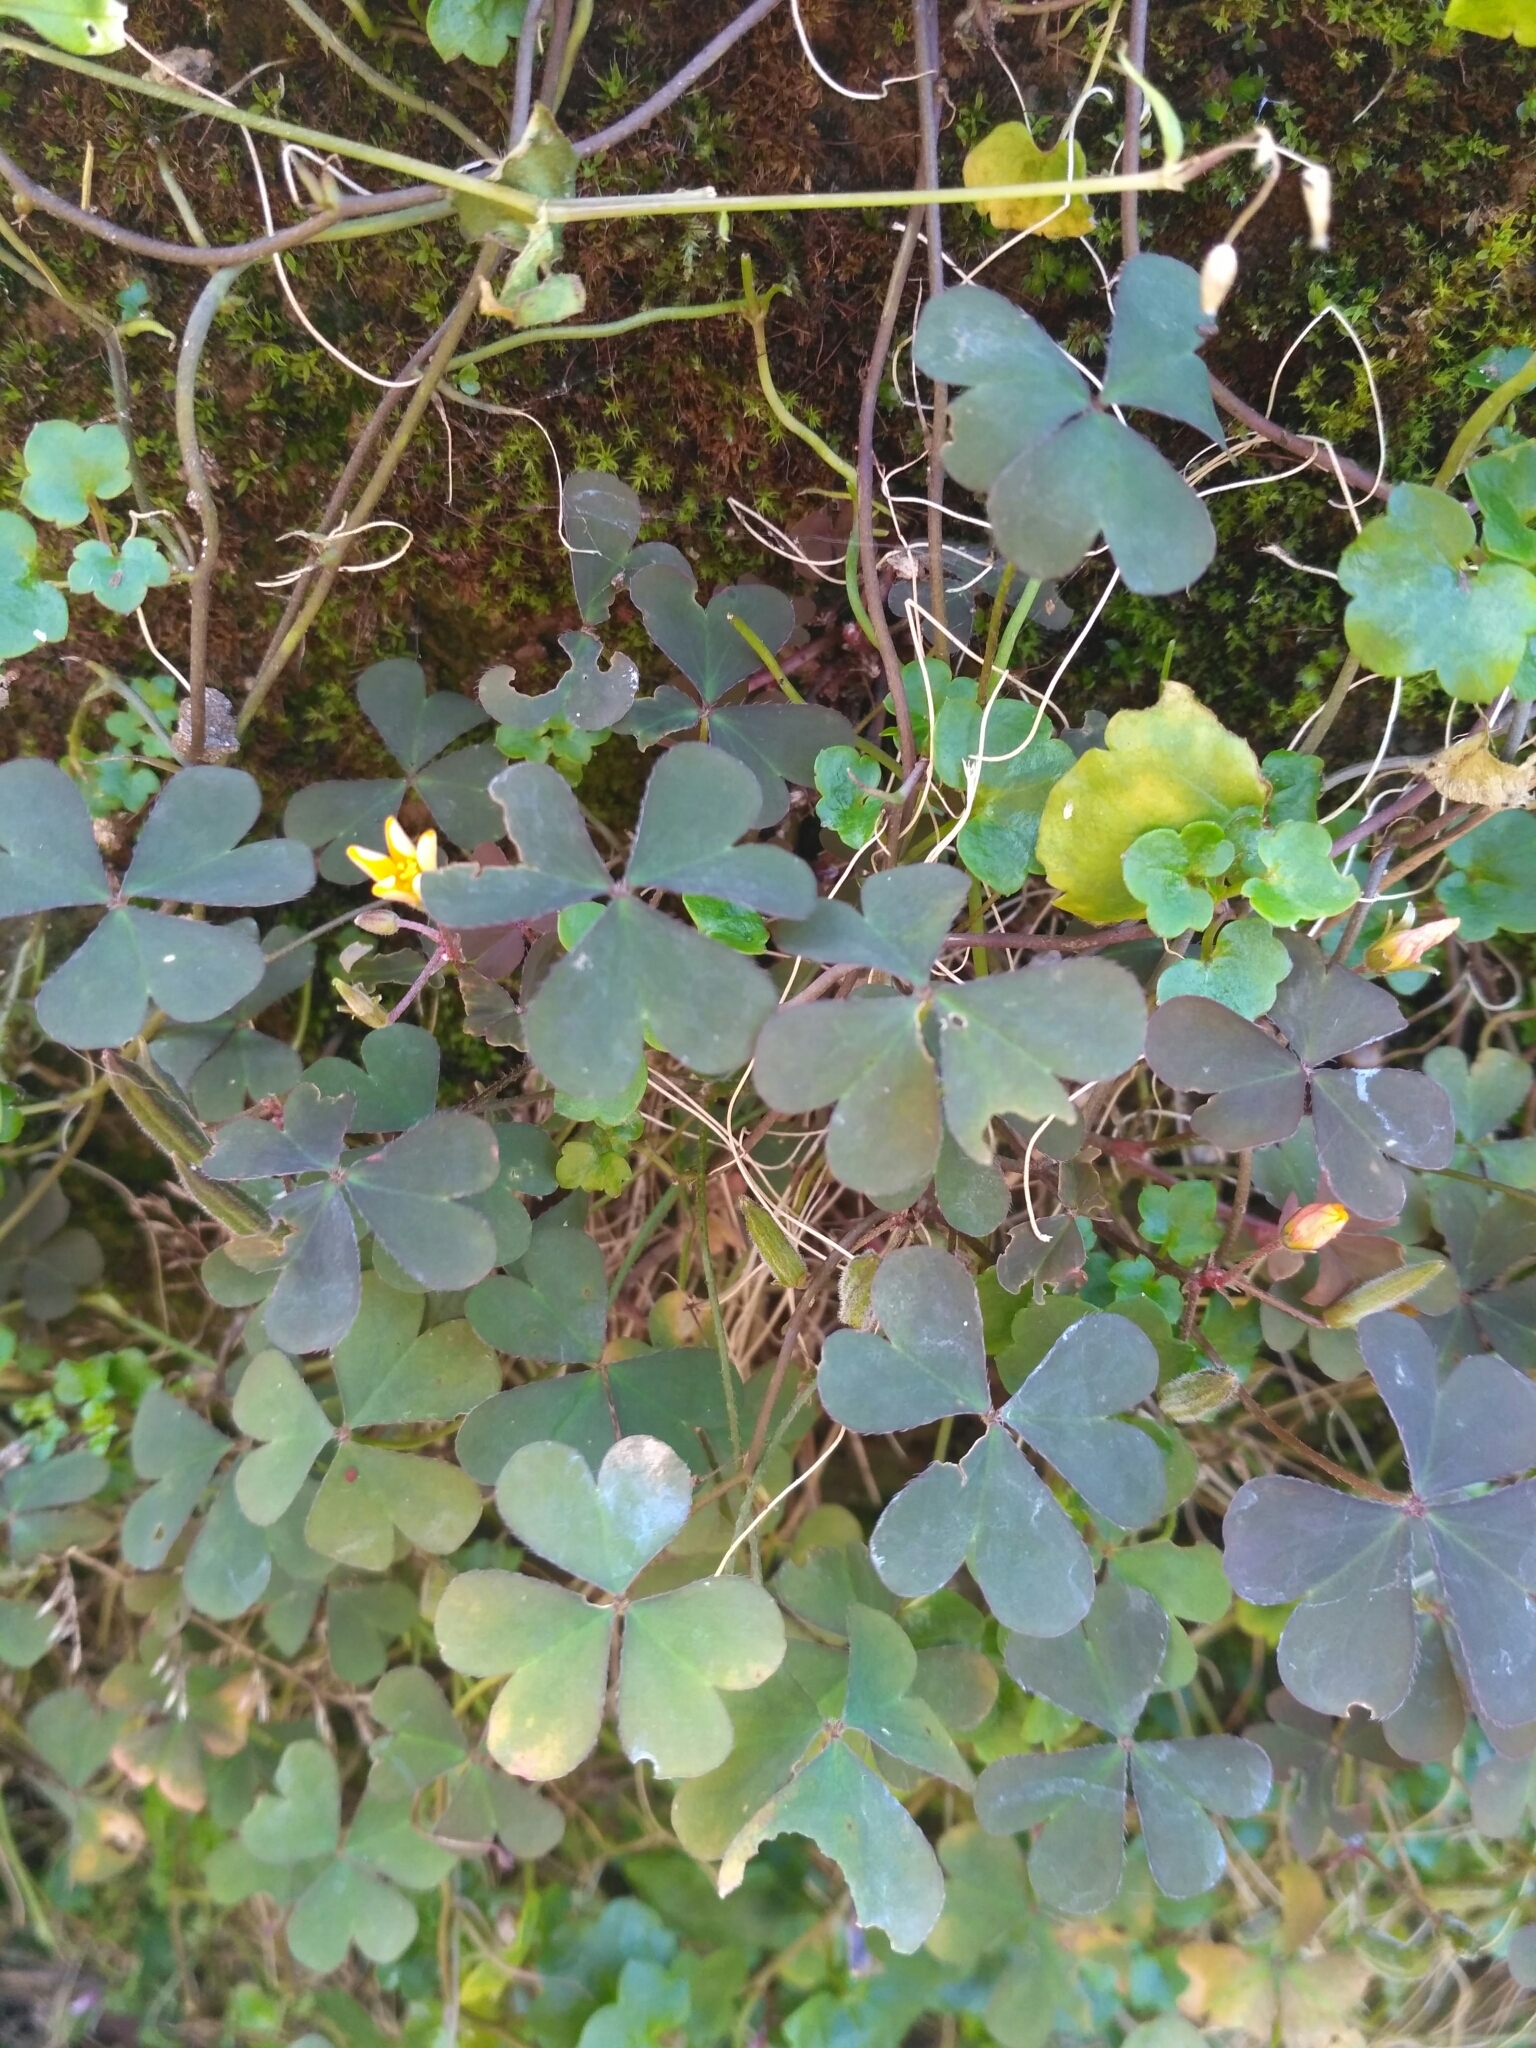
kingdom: Plantae
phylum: Tracheophyta
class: Magnoliopsida
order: Oxalidales
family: Oxalidaceae
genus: Oxalis
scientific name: Oxalis corniculata
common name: Procumbent yellow-sorrel
